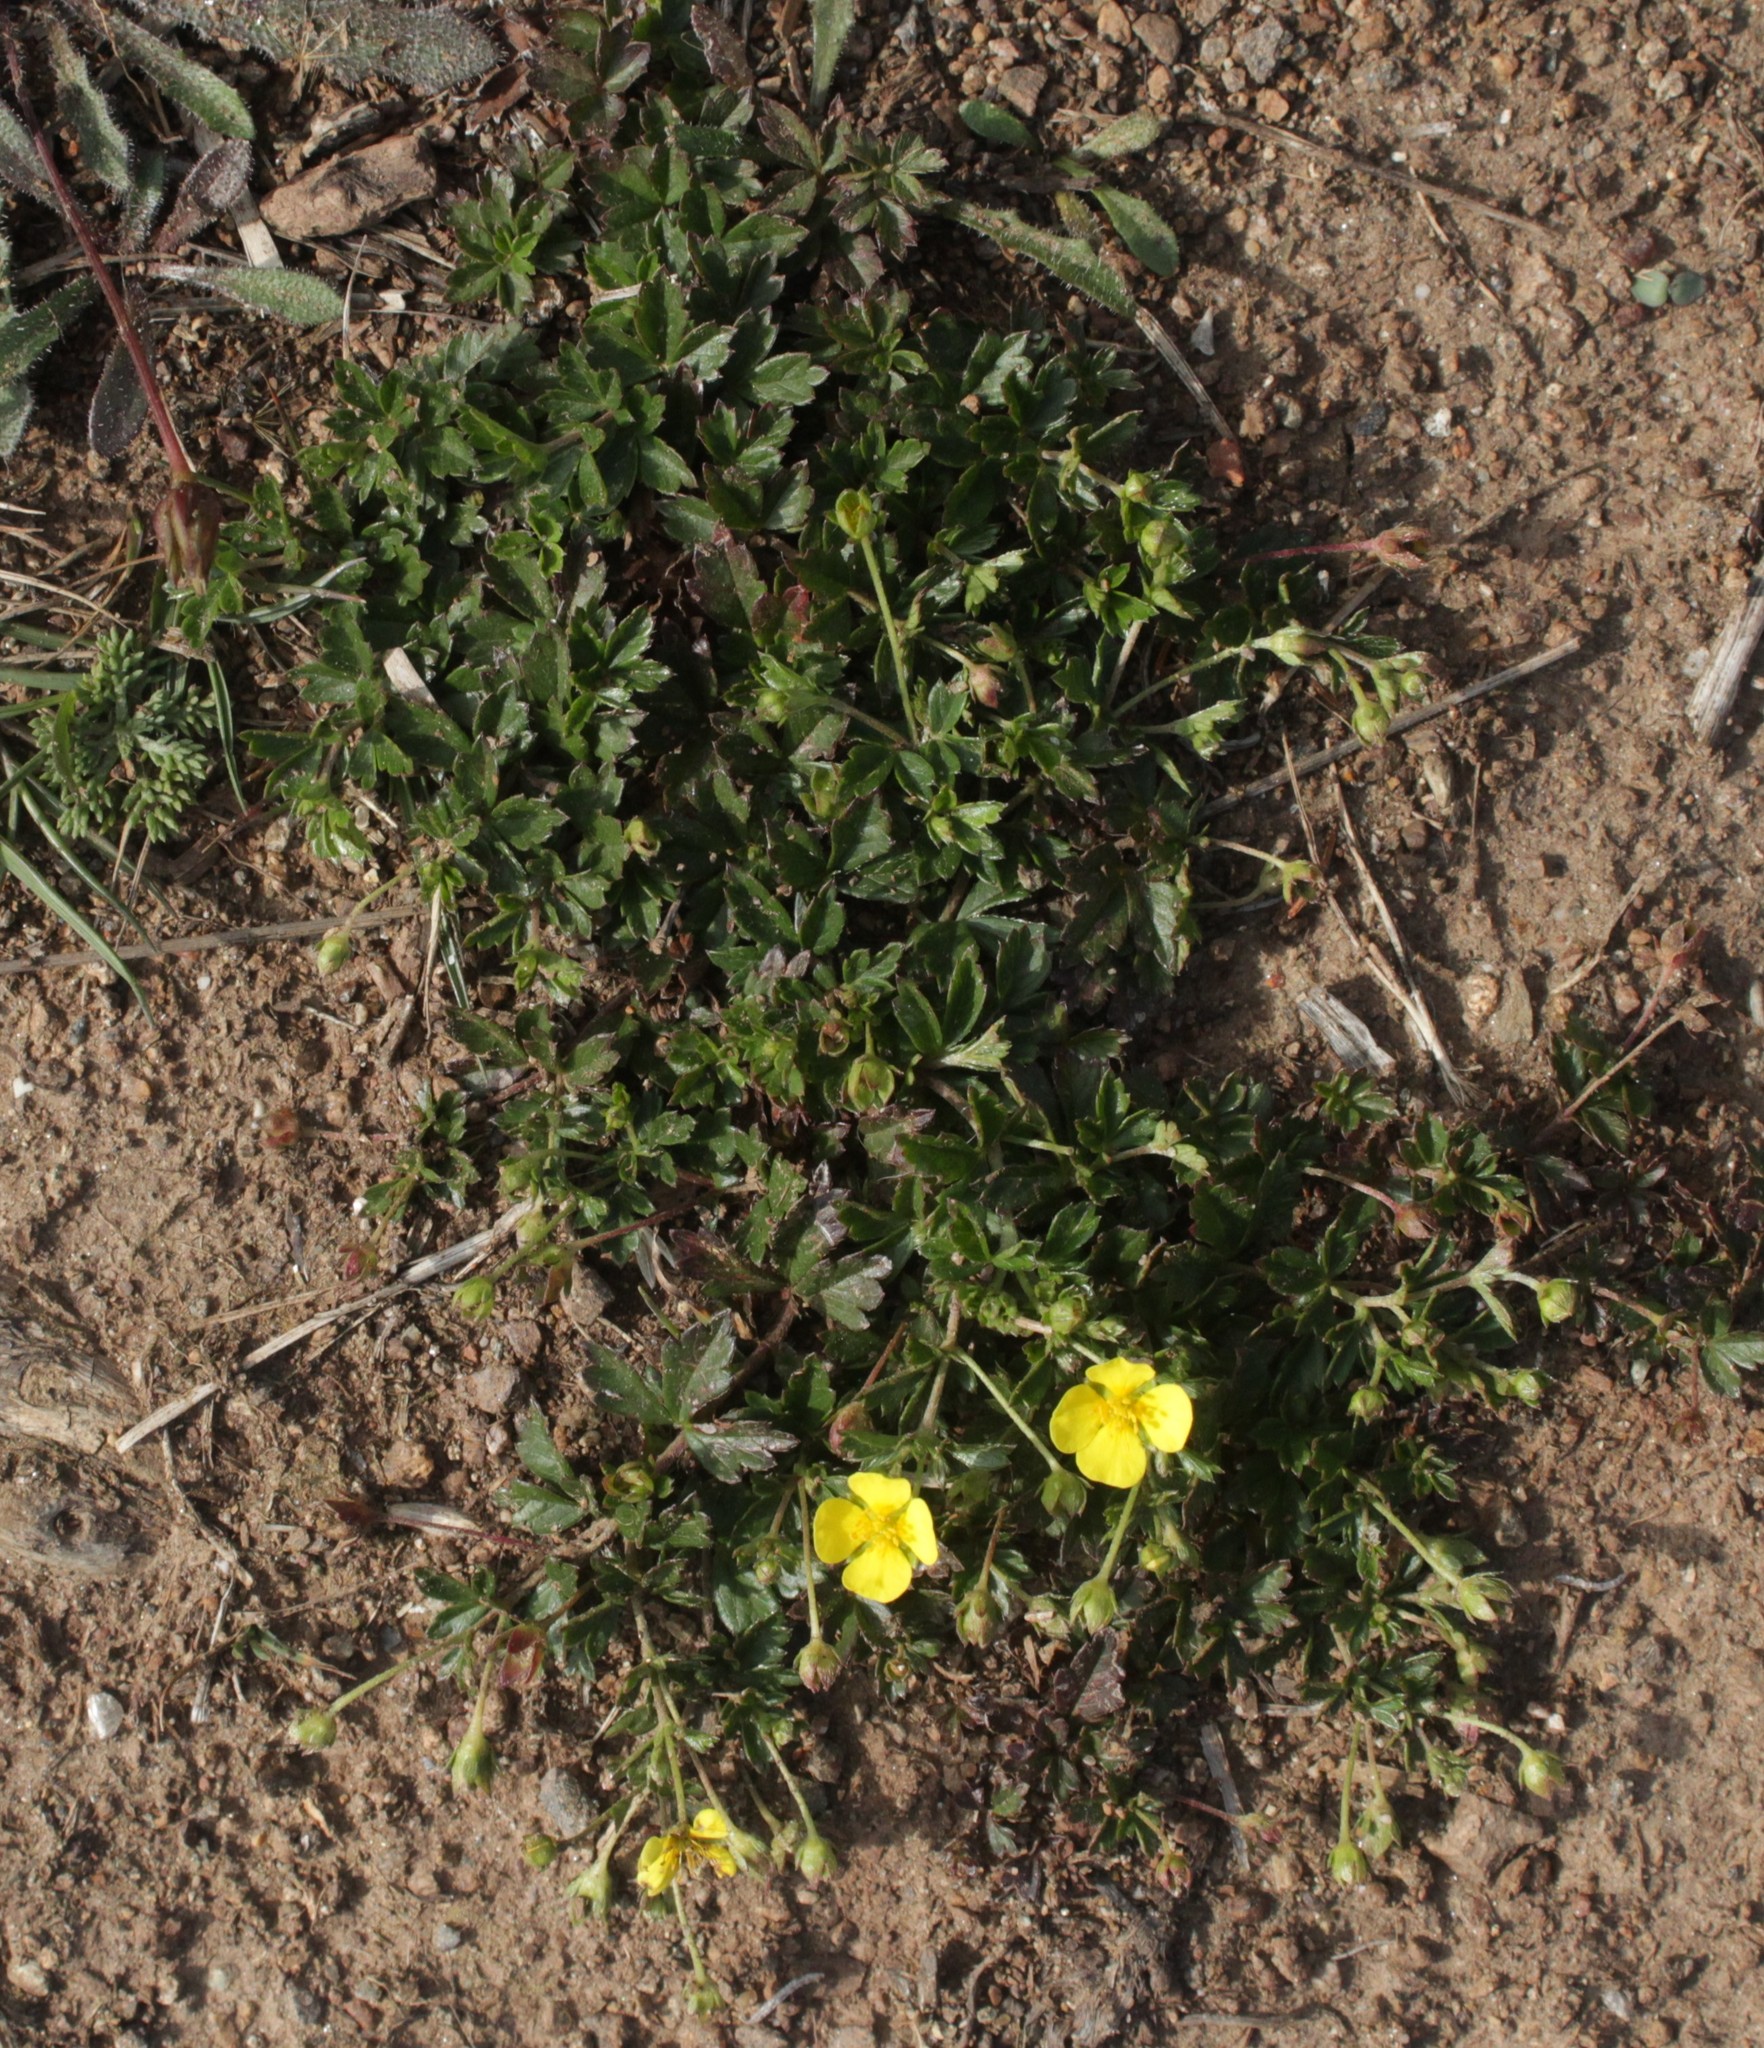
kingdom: Plantae
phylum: Tracheophyta
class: Magnoliopsida
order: Rosales
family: Rosaceae
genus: Potentilla
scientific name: Potentilla erecta
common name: Tormentil
